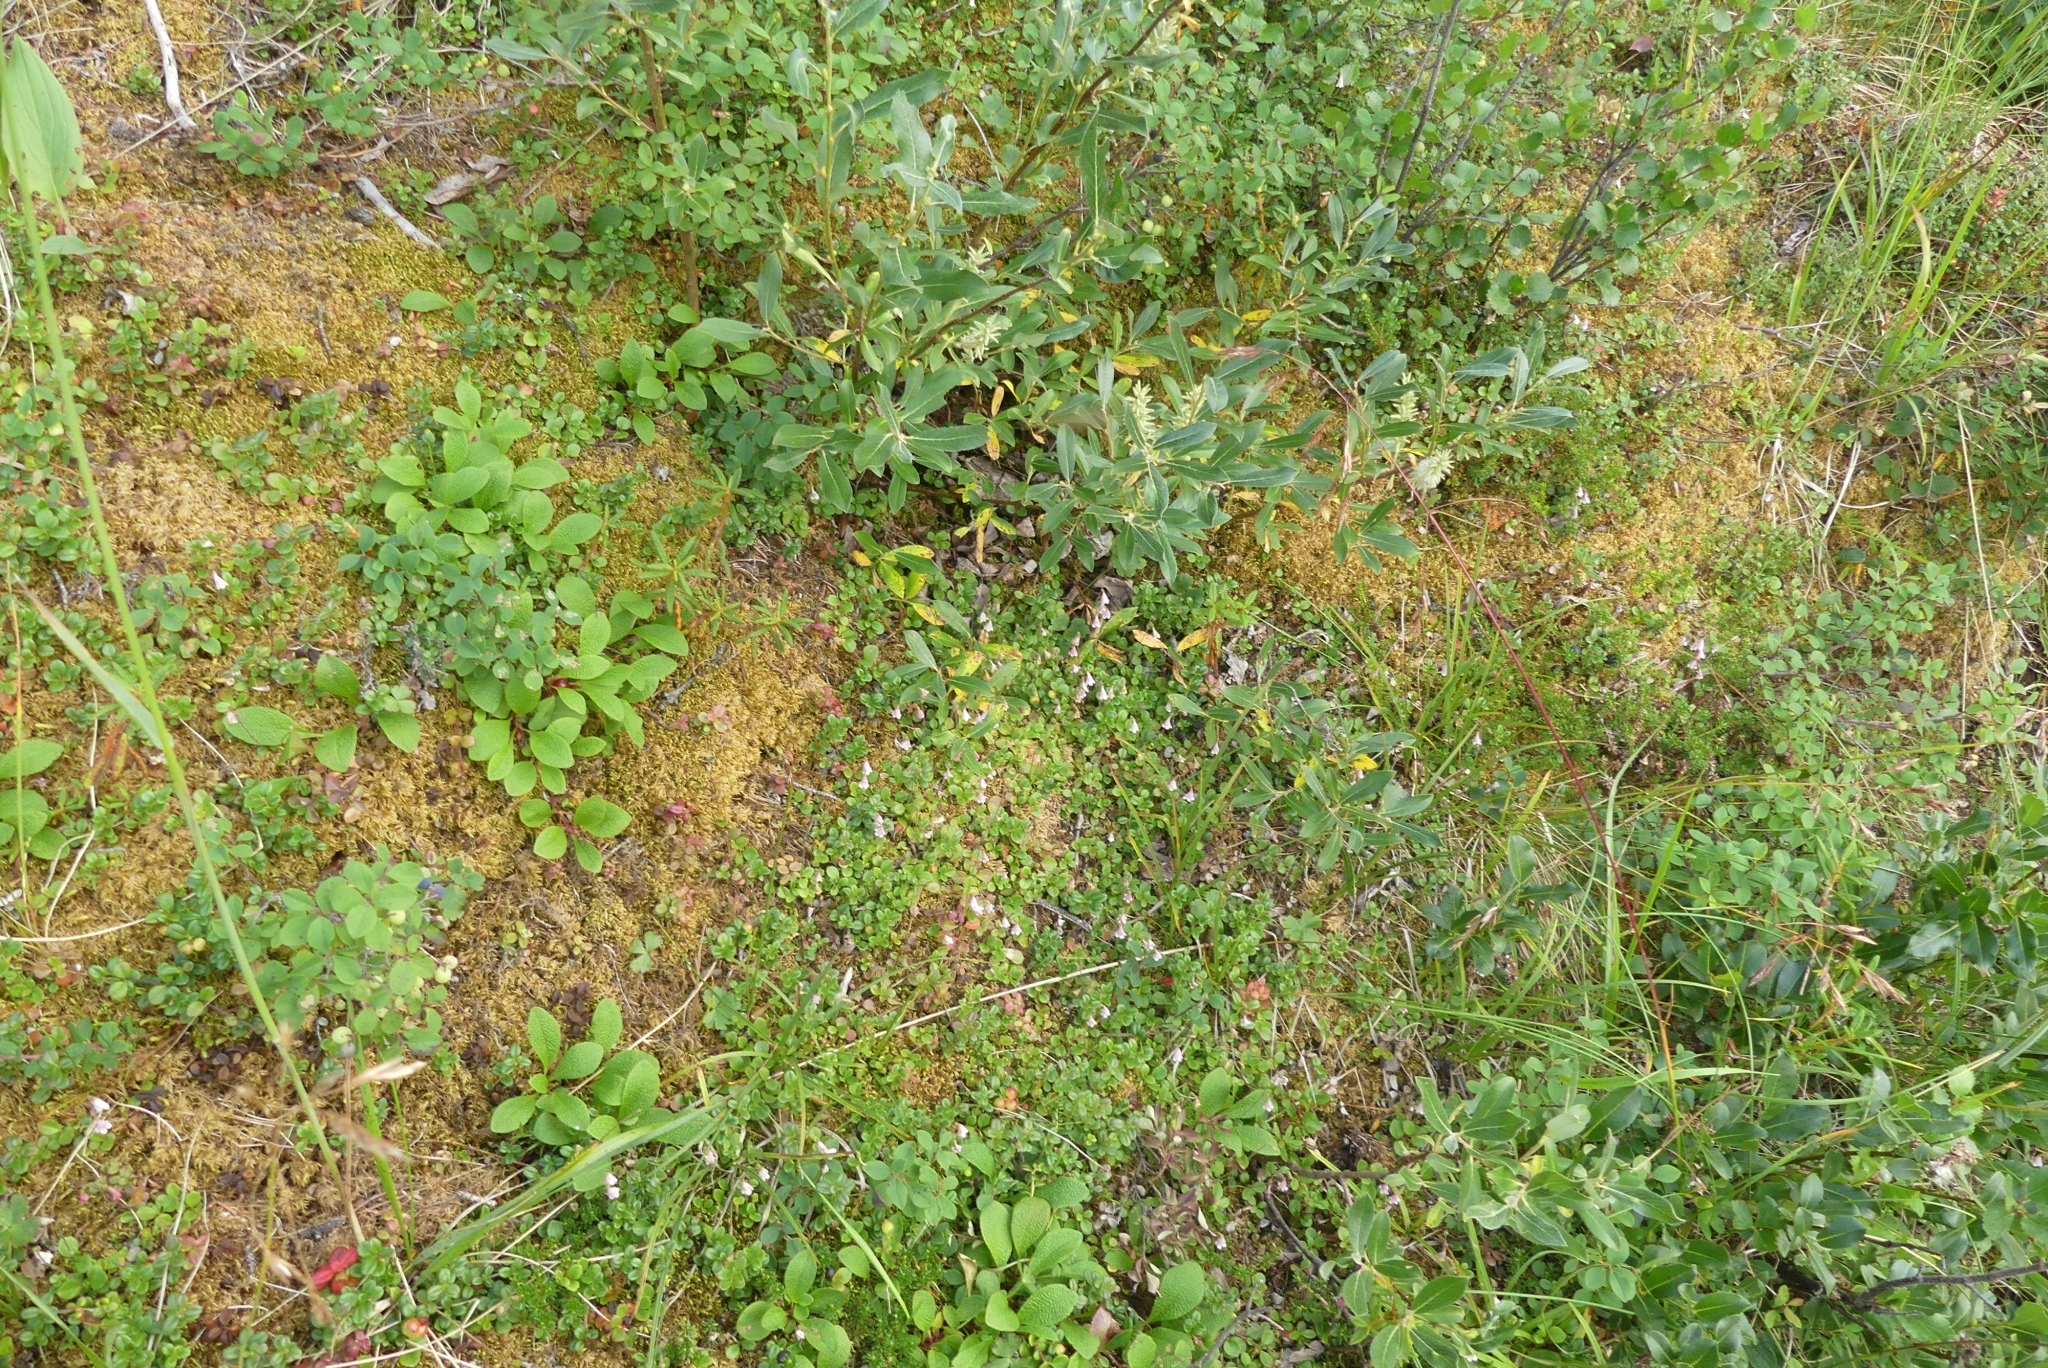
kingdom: Plantae
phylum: Tracheophyta
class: Magnoliopsida
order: Dipsacales
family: Caprifoliaceae
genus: Linnaea
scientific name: Linnaea borealis
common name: Twinflower
